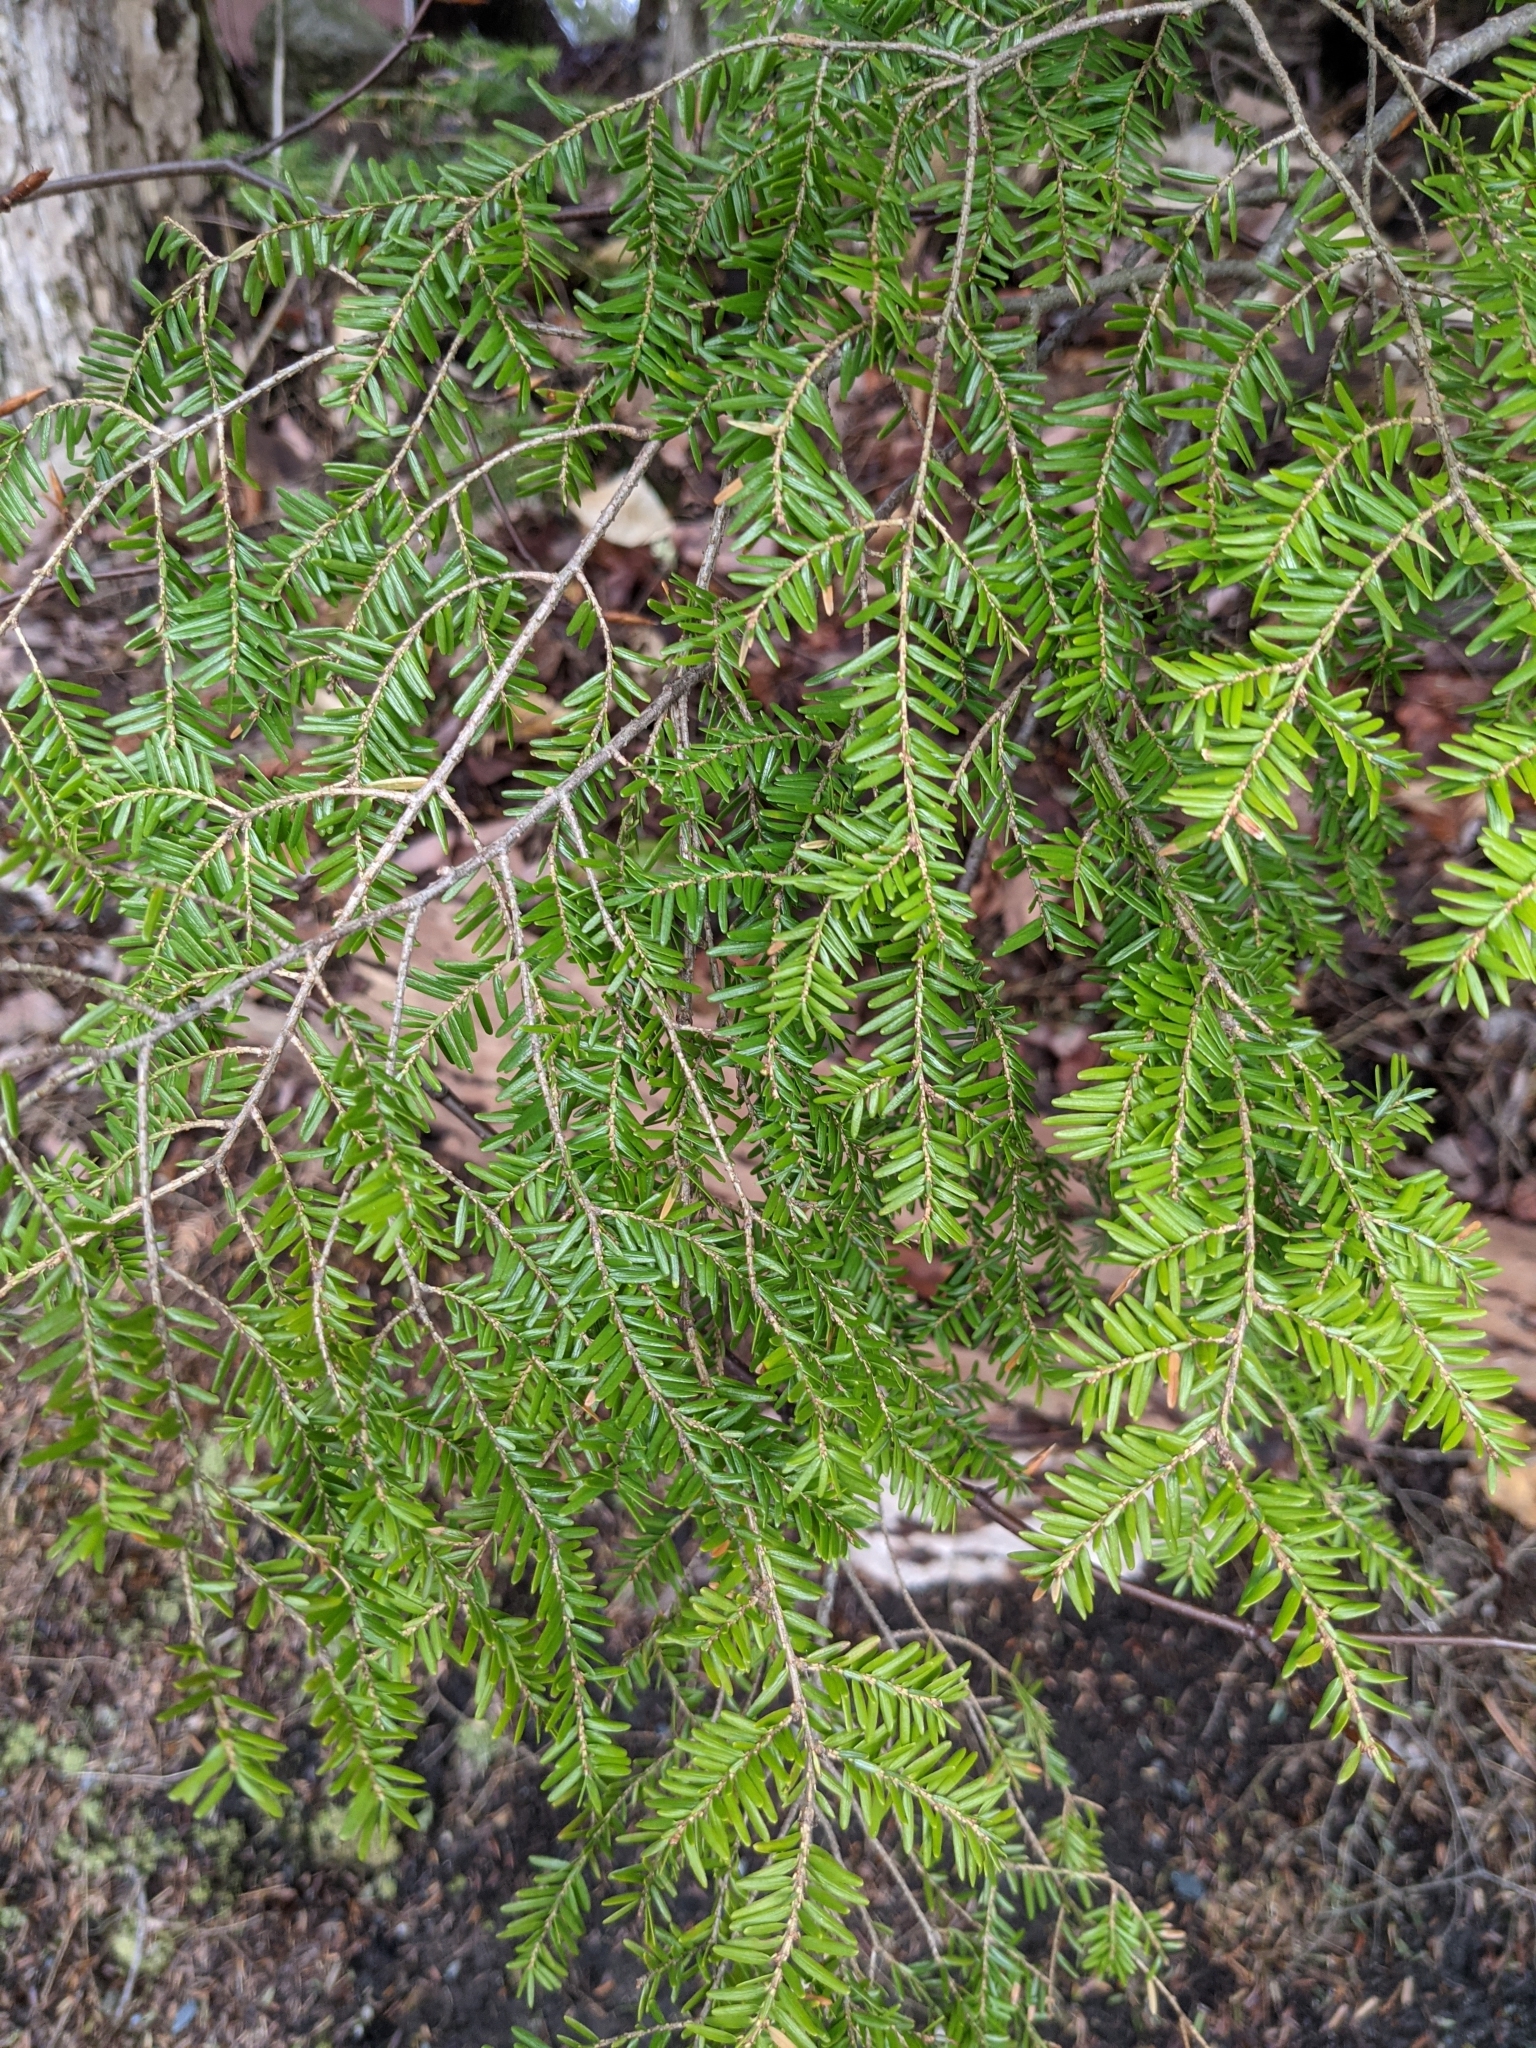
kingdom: Plantae
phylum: Tracheophyta
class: Pinopsida
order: Pinales
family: Pinaceae
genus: Tsuga
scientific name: Tsuga canadensis
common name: Eastern hemlock
